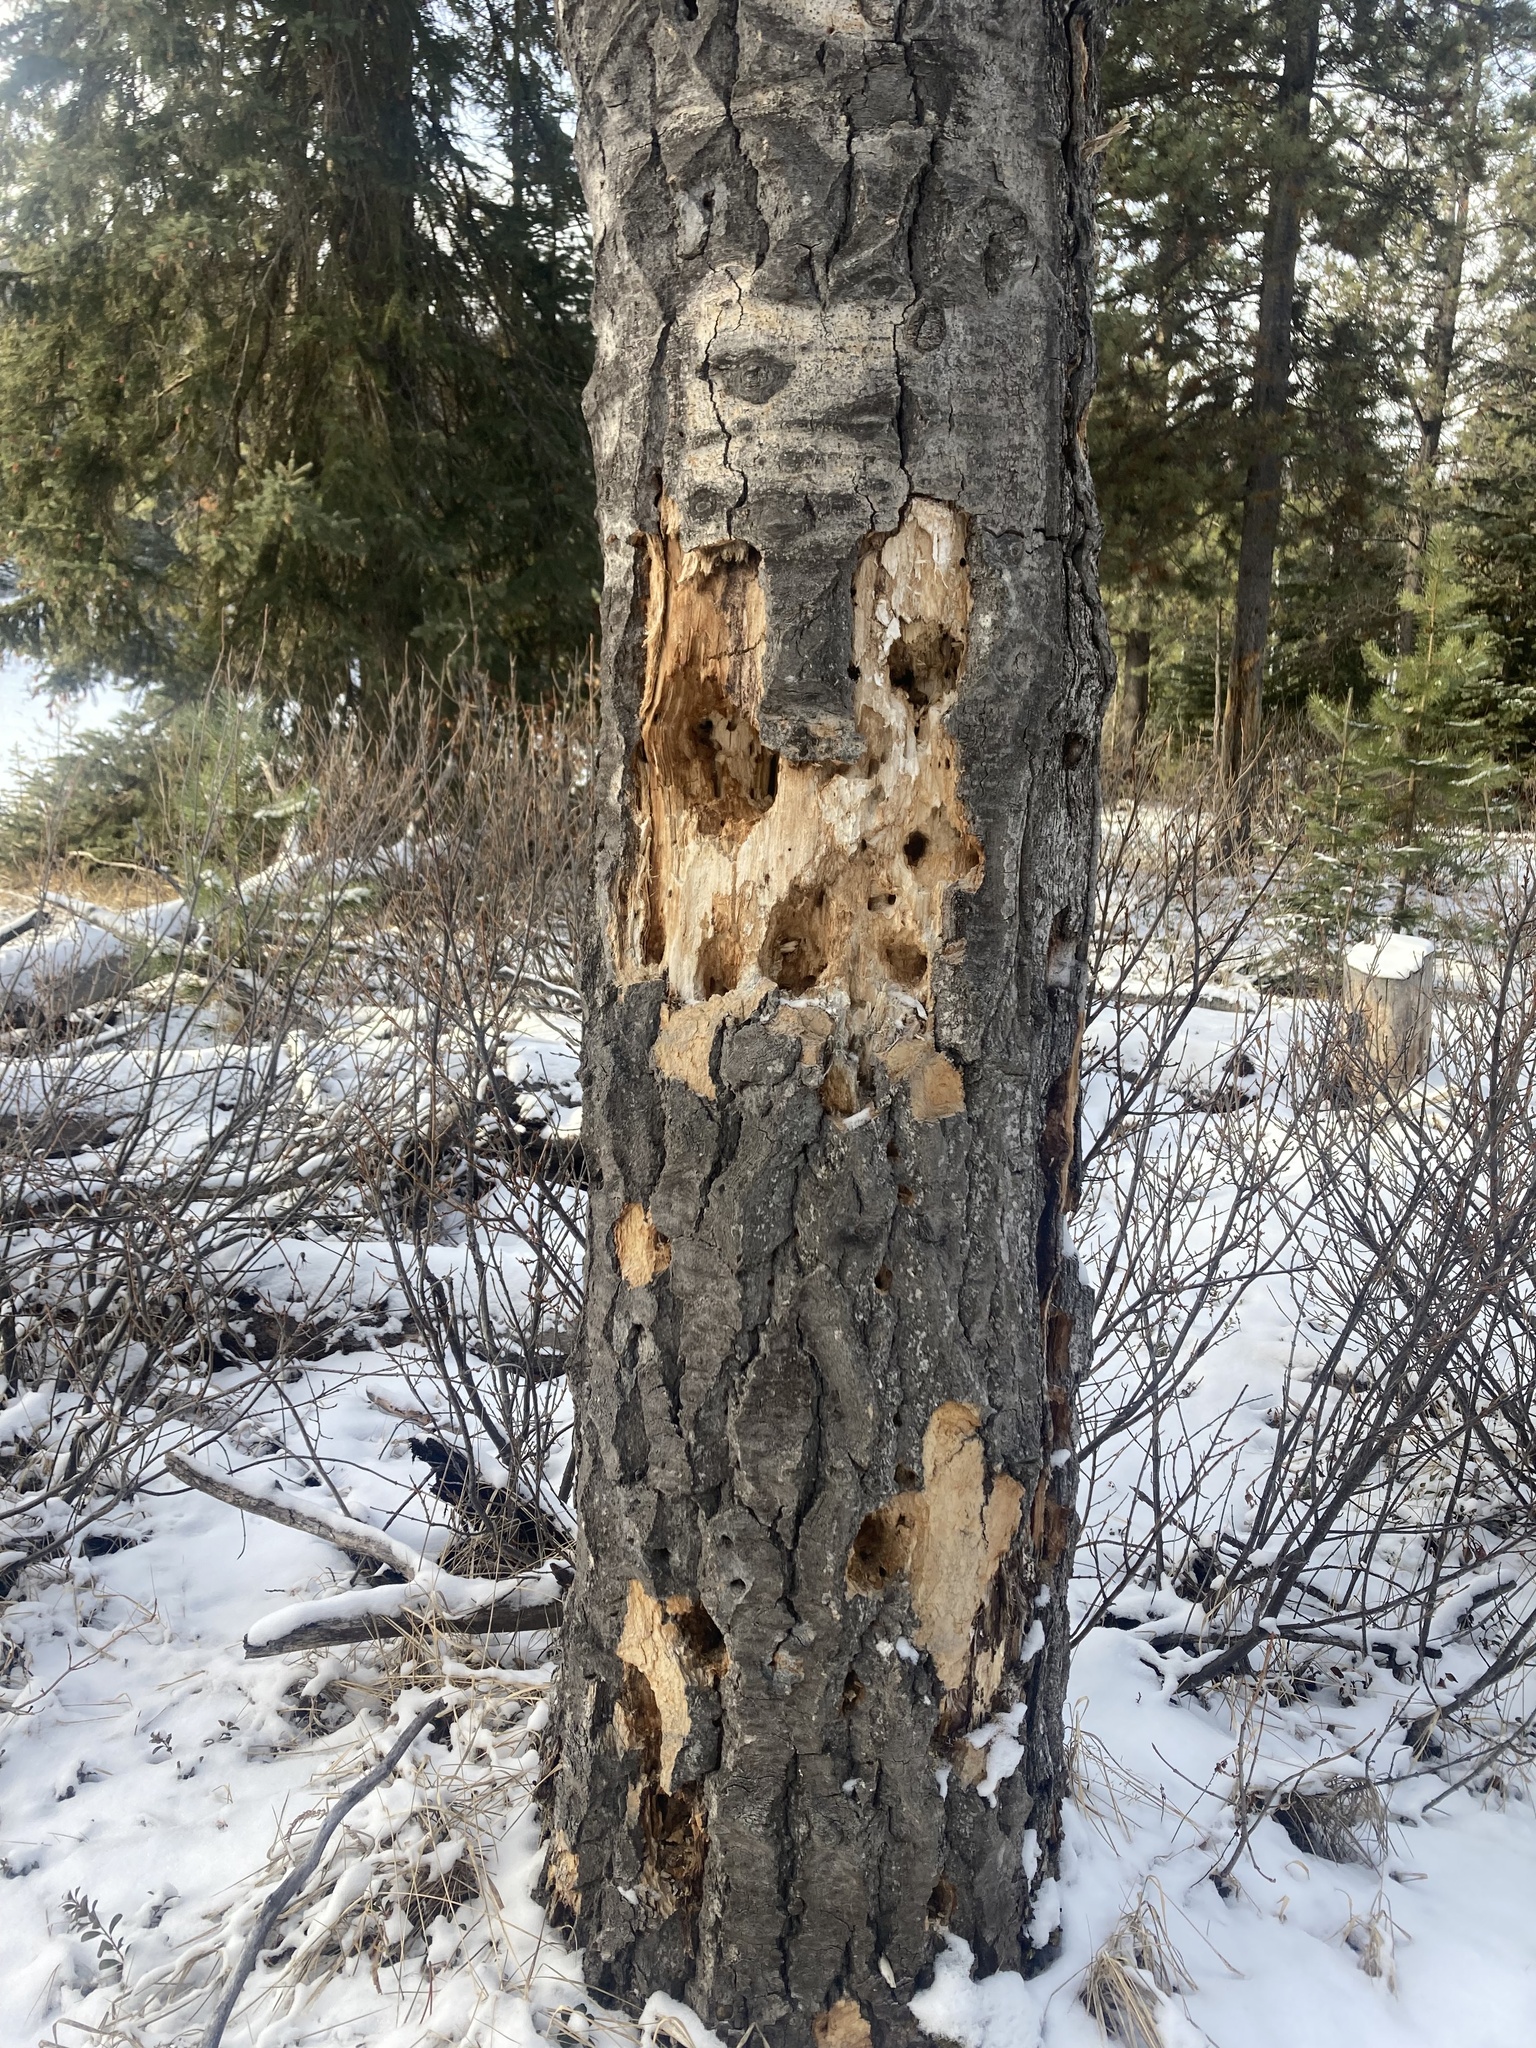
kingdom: Animalia
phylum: Chordata
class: Aves
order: Piciformes
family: Picidae
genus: Dryocopus
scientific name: Dryocopus pileatus
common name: Pileated woodpecker
